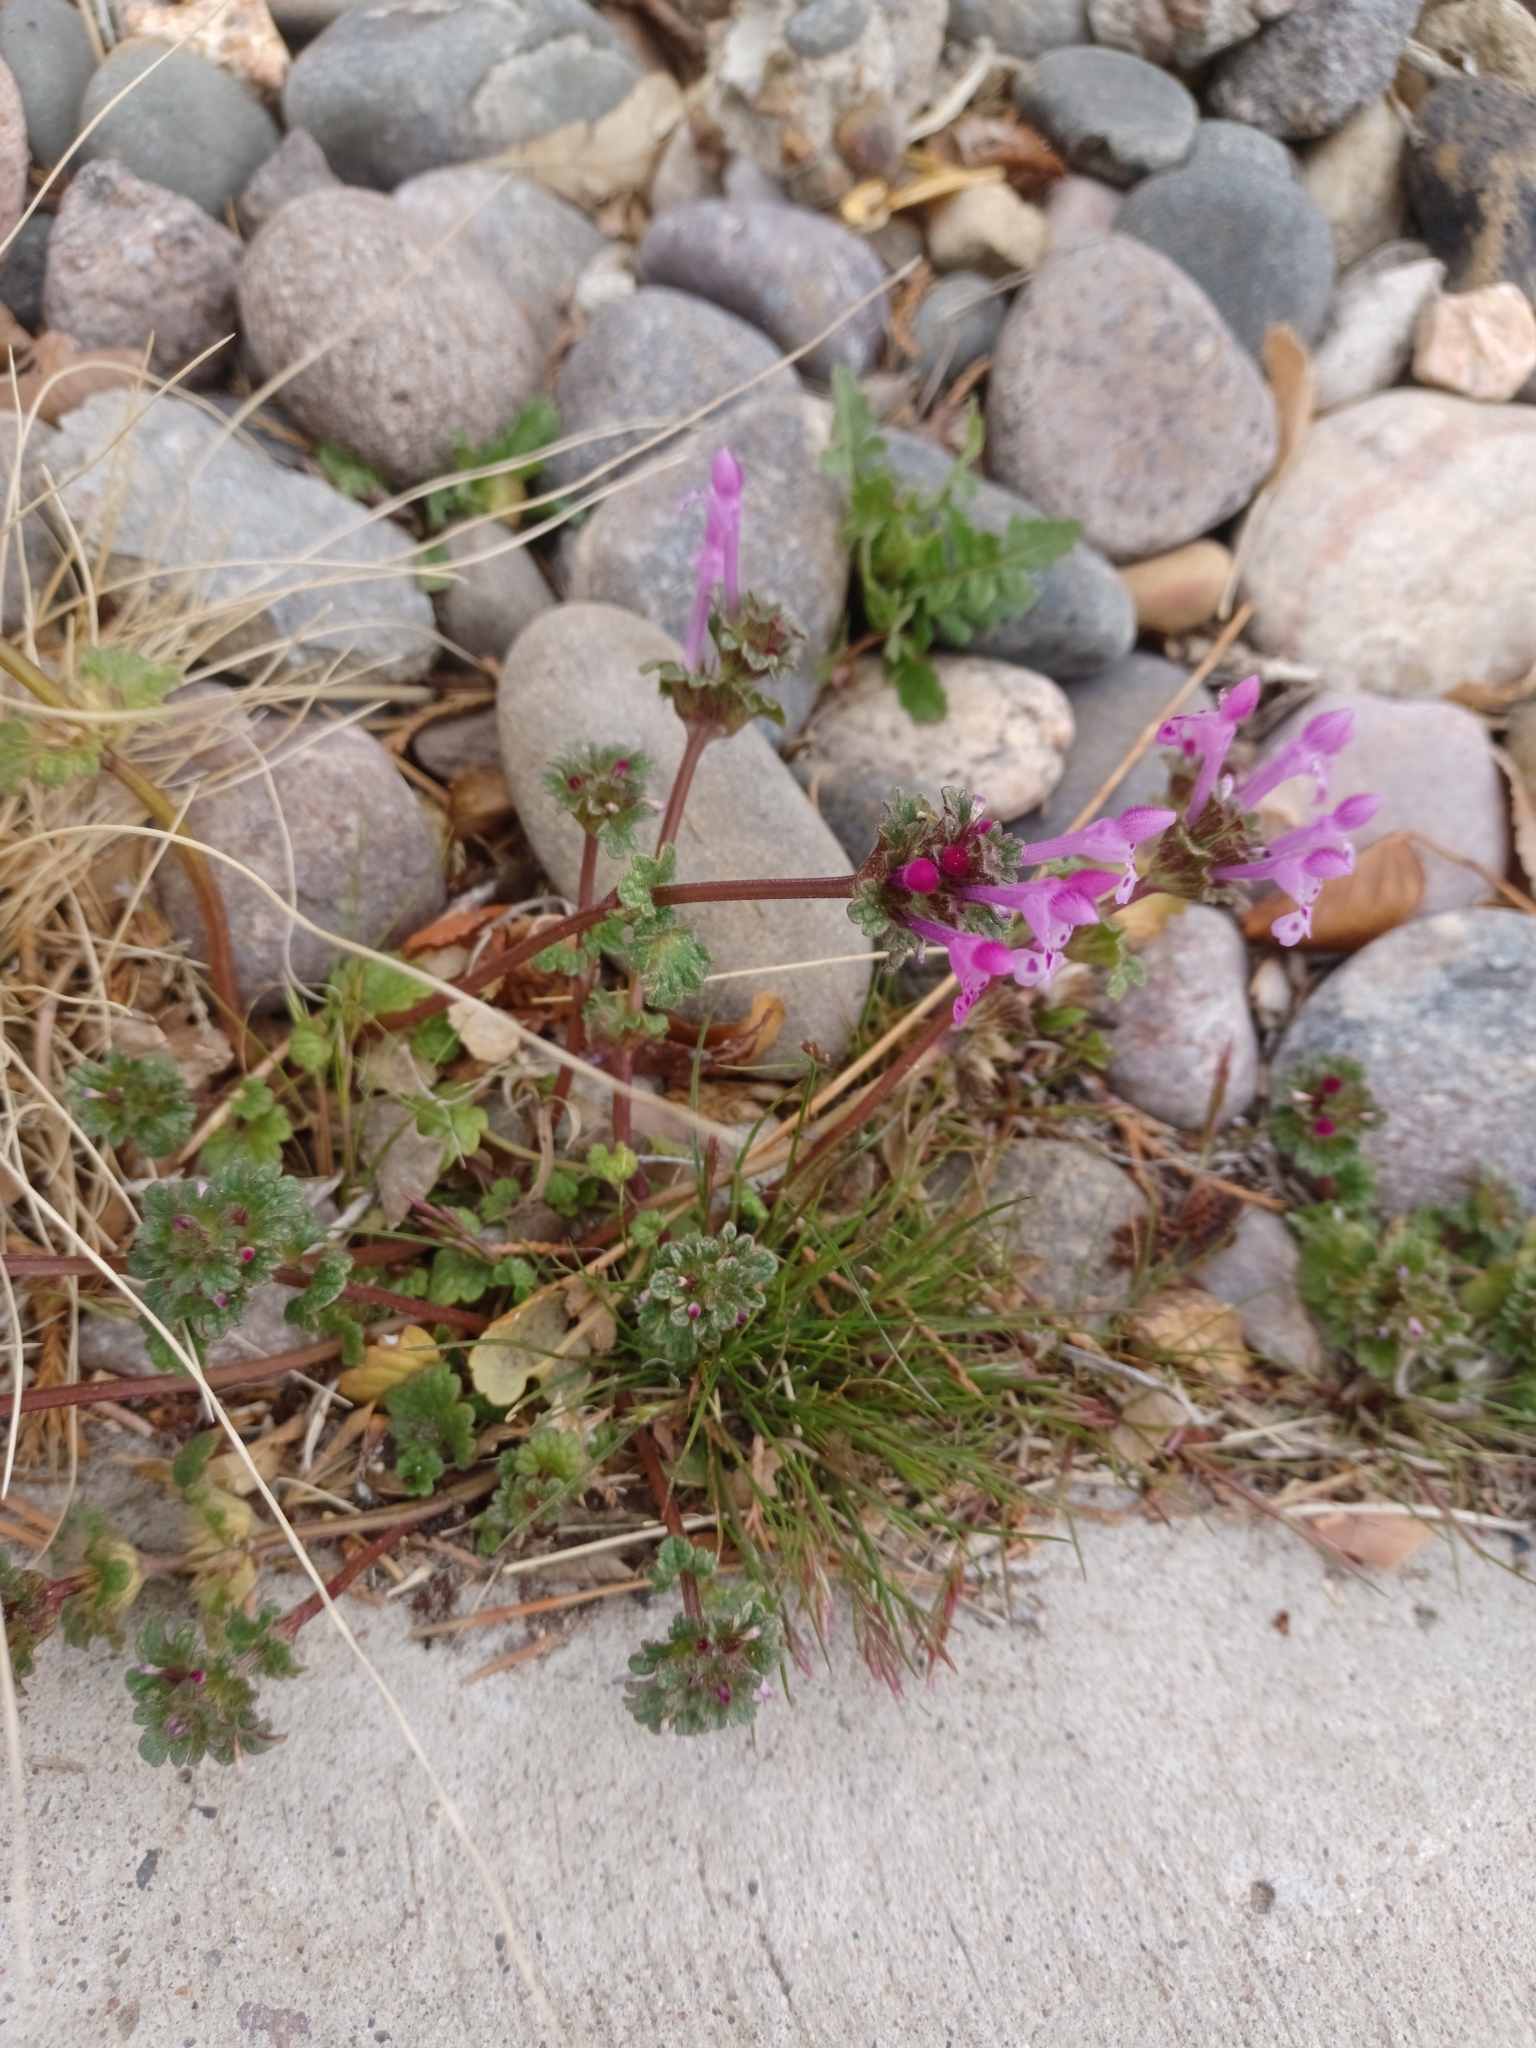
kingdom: Plantae
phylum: Tracheophyta
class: Magnoliopsida
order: Lamiales
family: Lamiaceae
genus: Lamium
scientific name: Lamium amplexicaule
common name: Henbit dead-nettle
